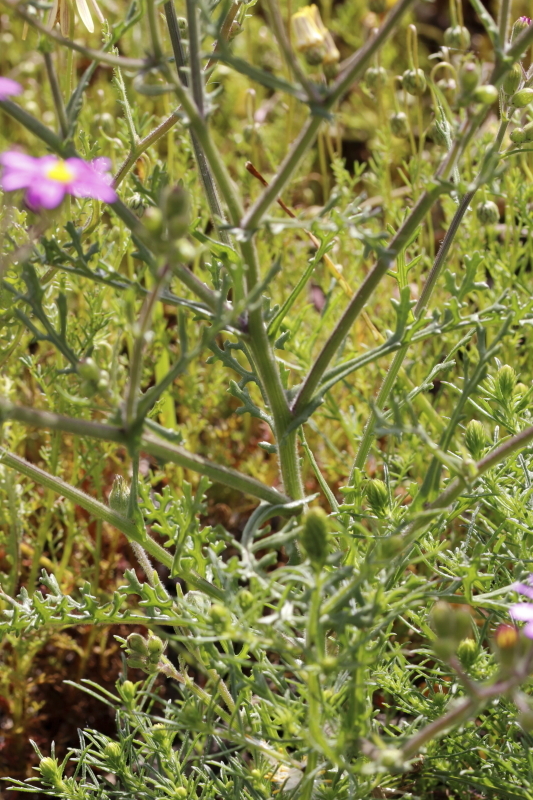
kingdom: Plantae
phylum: Tracheophyta
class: Magnoliopsida
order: Asterales
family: Asteraceae
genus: Senecio
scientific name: Senecio arenarius
